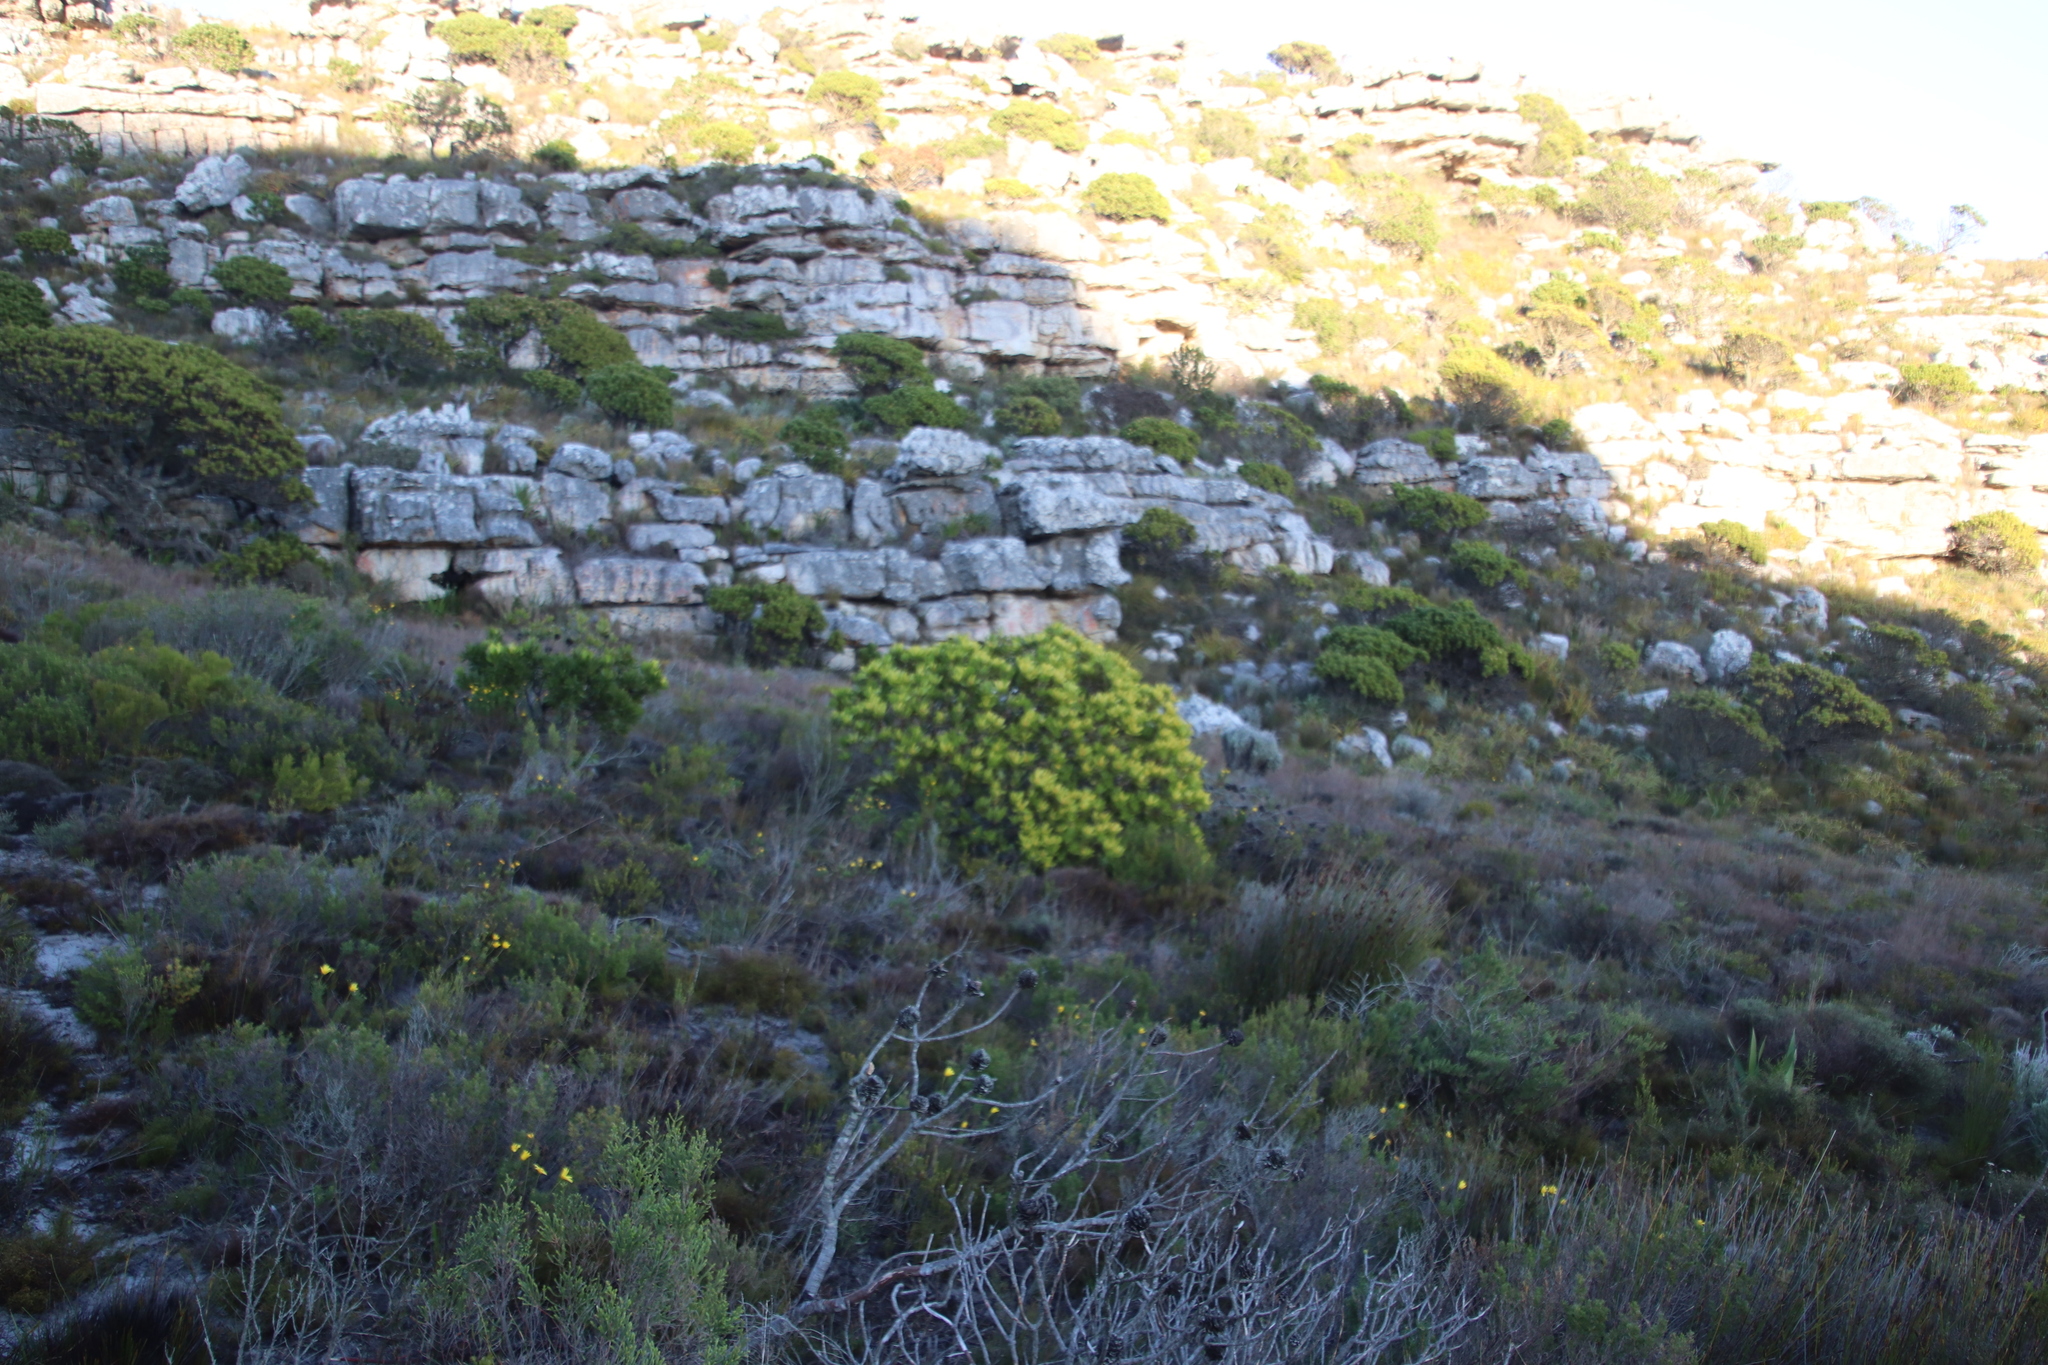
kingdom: Plantae
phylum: Tracheophyta
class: Magnoliopsida
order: Proteales
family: Proteaceae
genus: Leucadendron
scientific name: Leucadendron laureolum
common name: Golden sunshinebush
